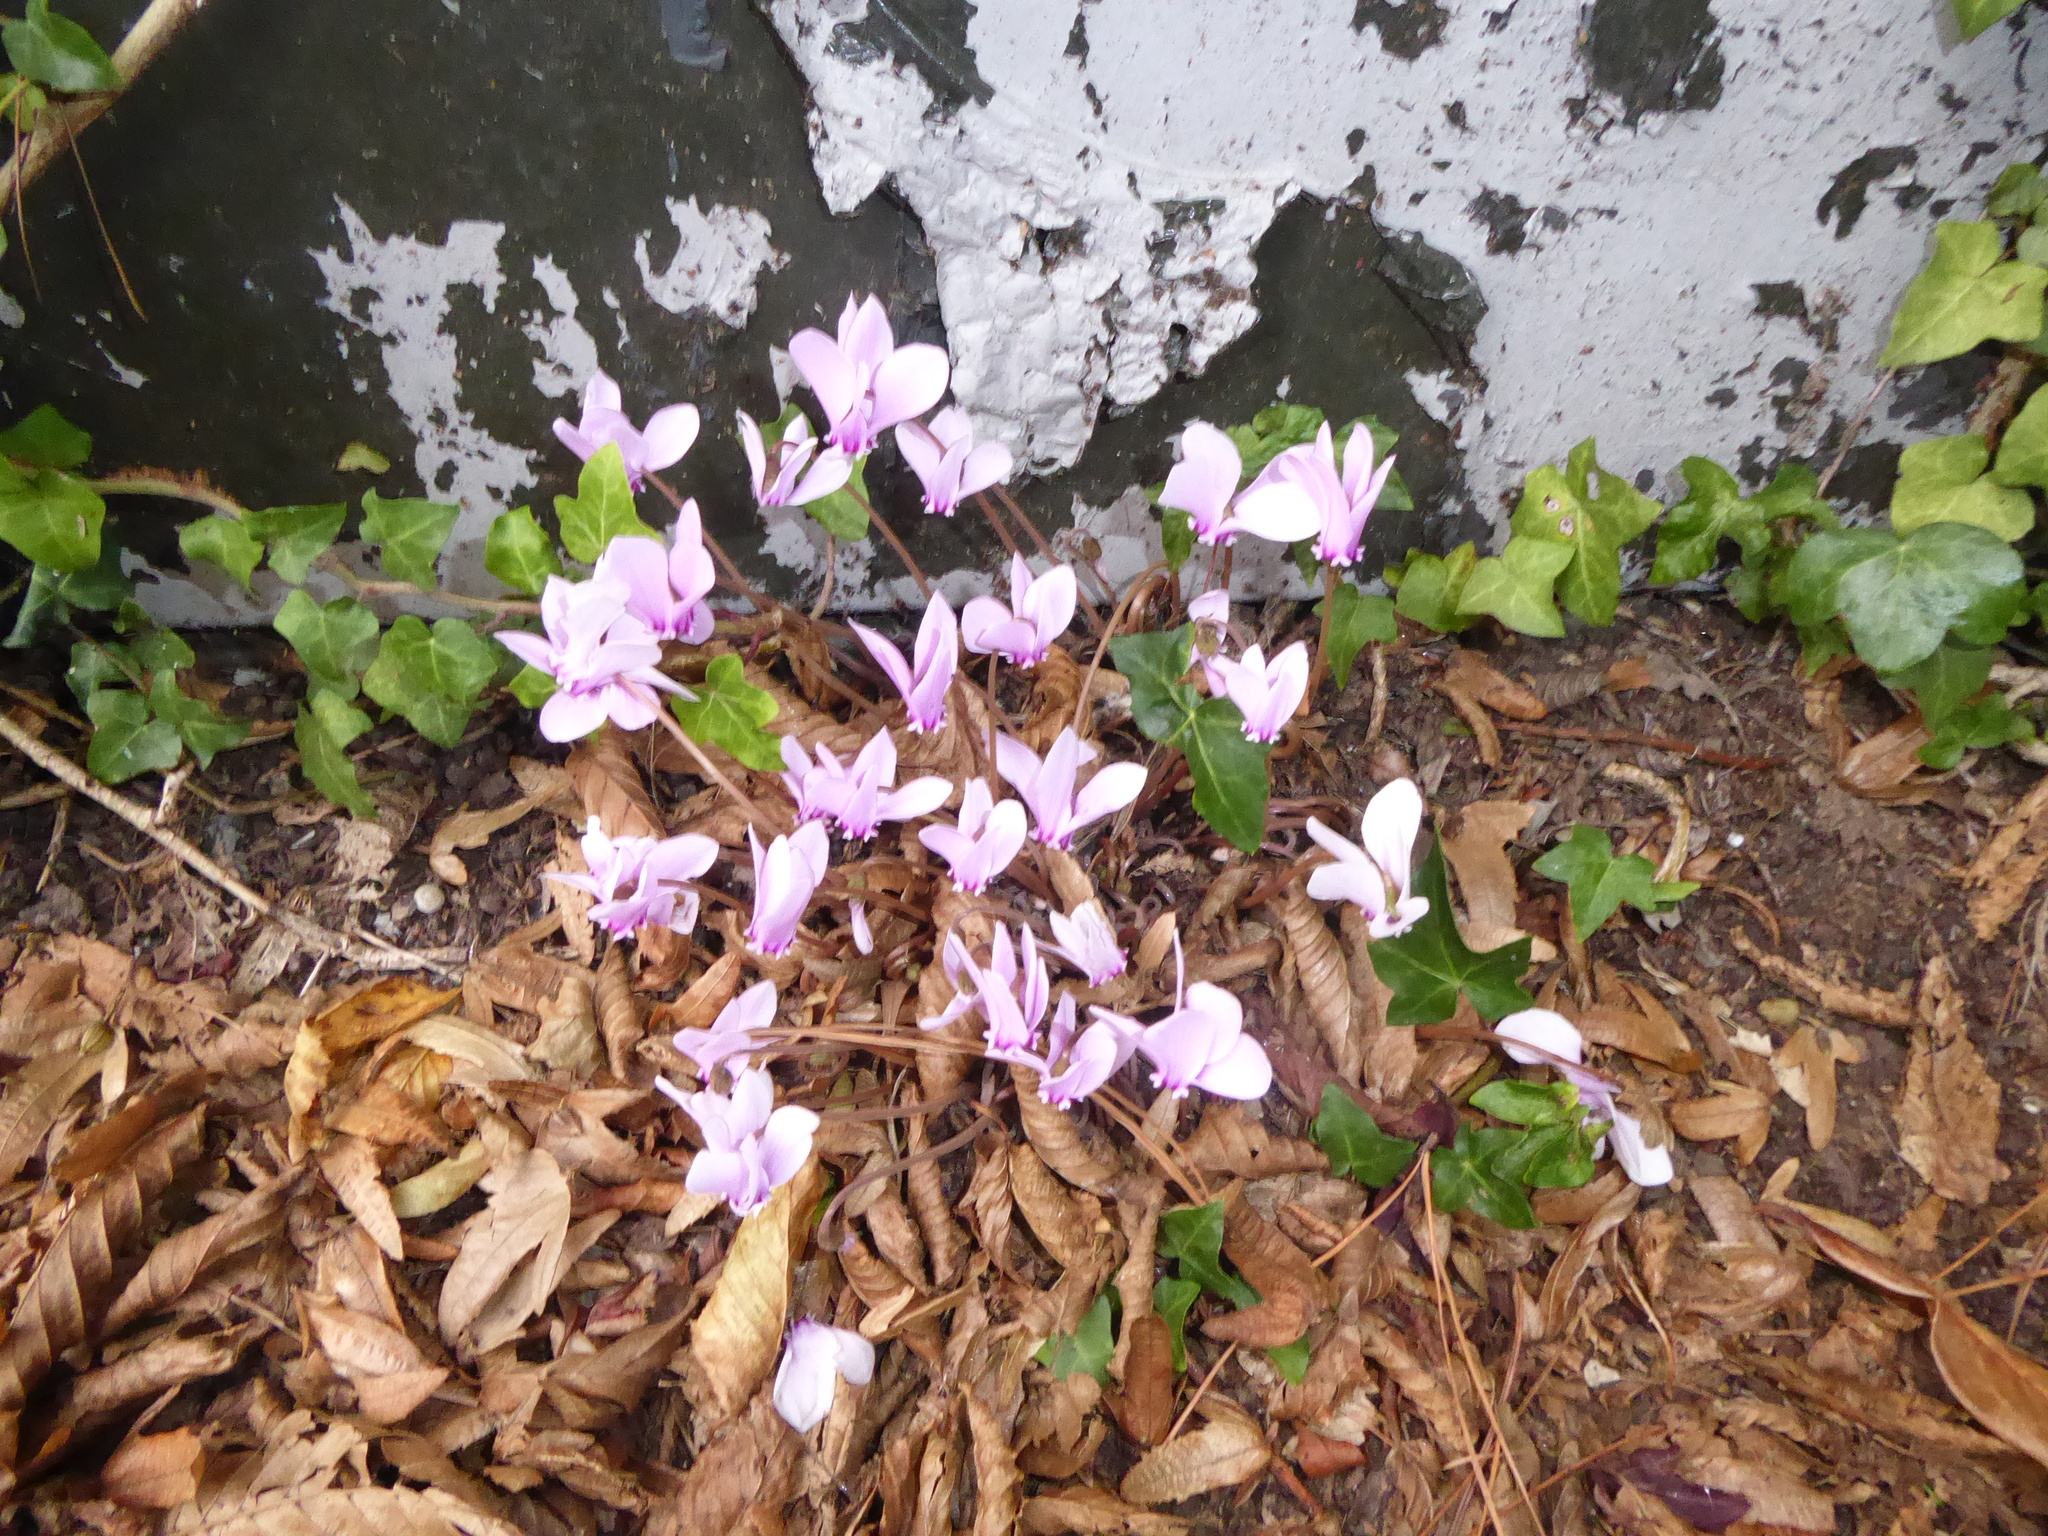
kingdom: Plantae
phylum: Tracheophyta
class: Magnoliopsida
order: Ericales
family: Primulaceae
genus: Cyclamen
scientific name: Cyclamen hederifolium
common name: Sowbread
